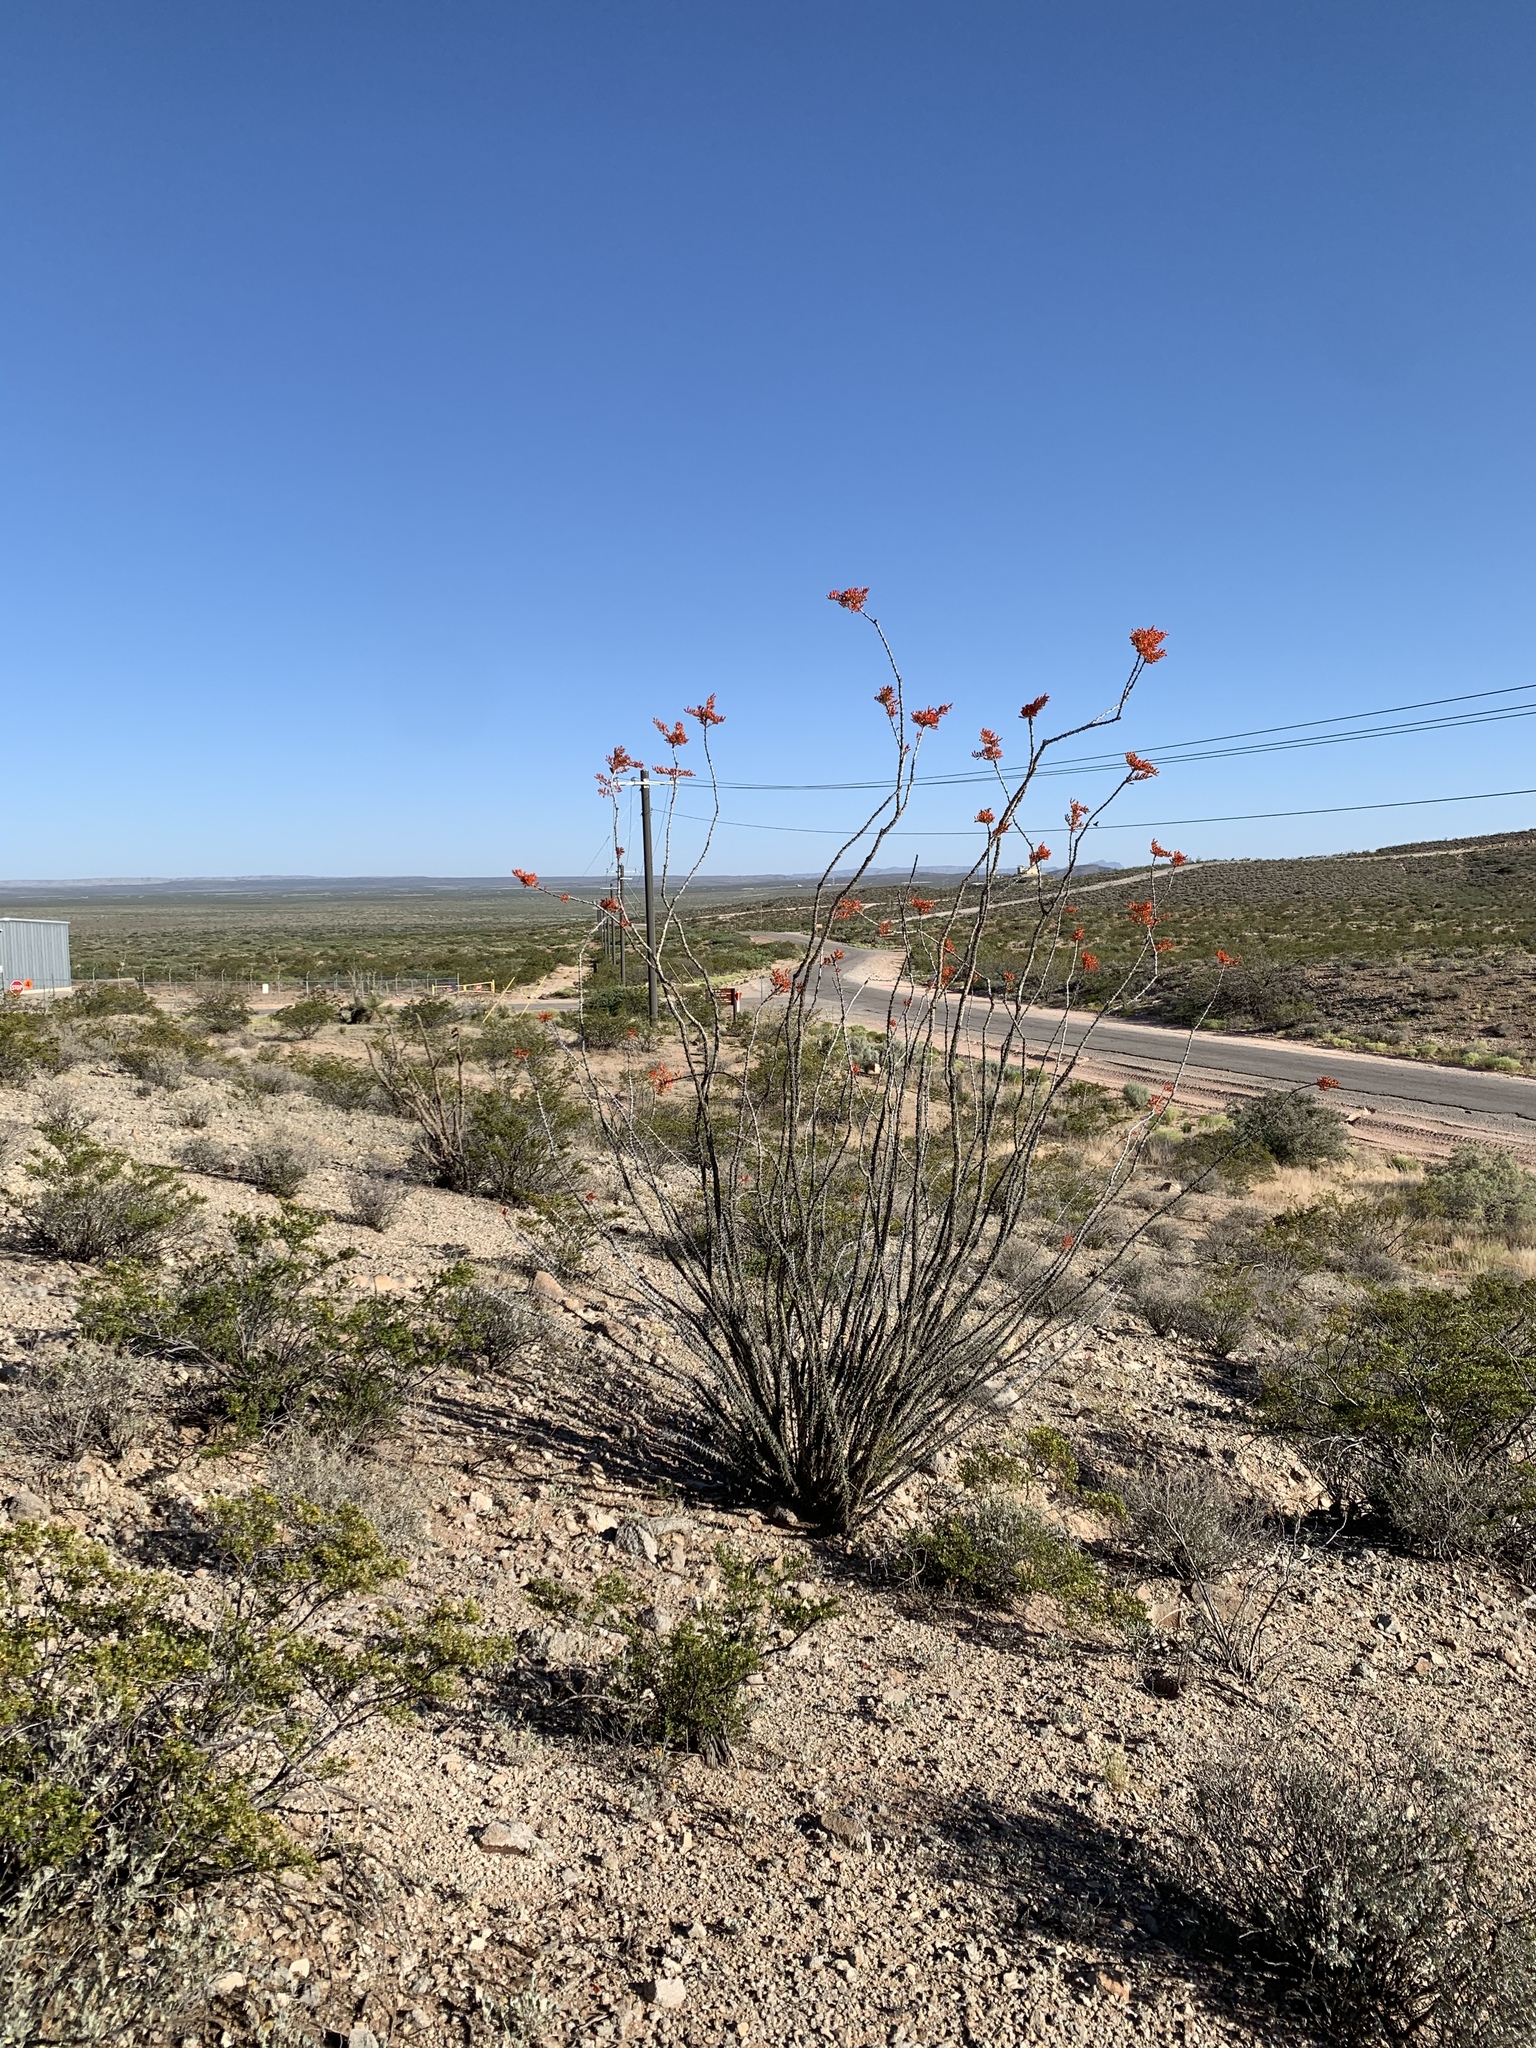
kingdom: Plantae
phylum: Tracheophyta
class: Magnoliopsida
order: Ericales
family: Fouquieriaceae
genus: Fouquieria
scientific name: Fouquieria splendens
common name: Vine-cactus
